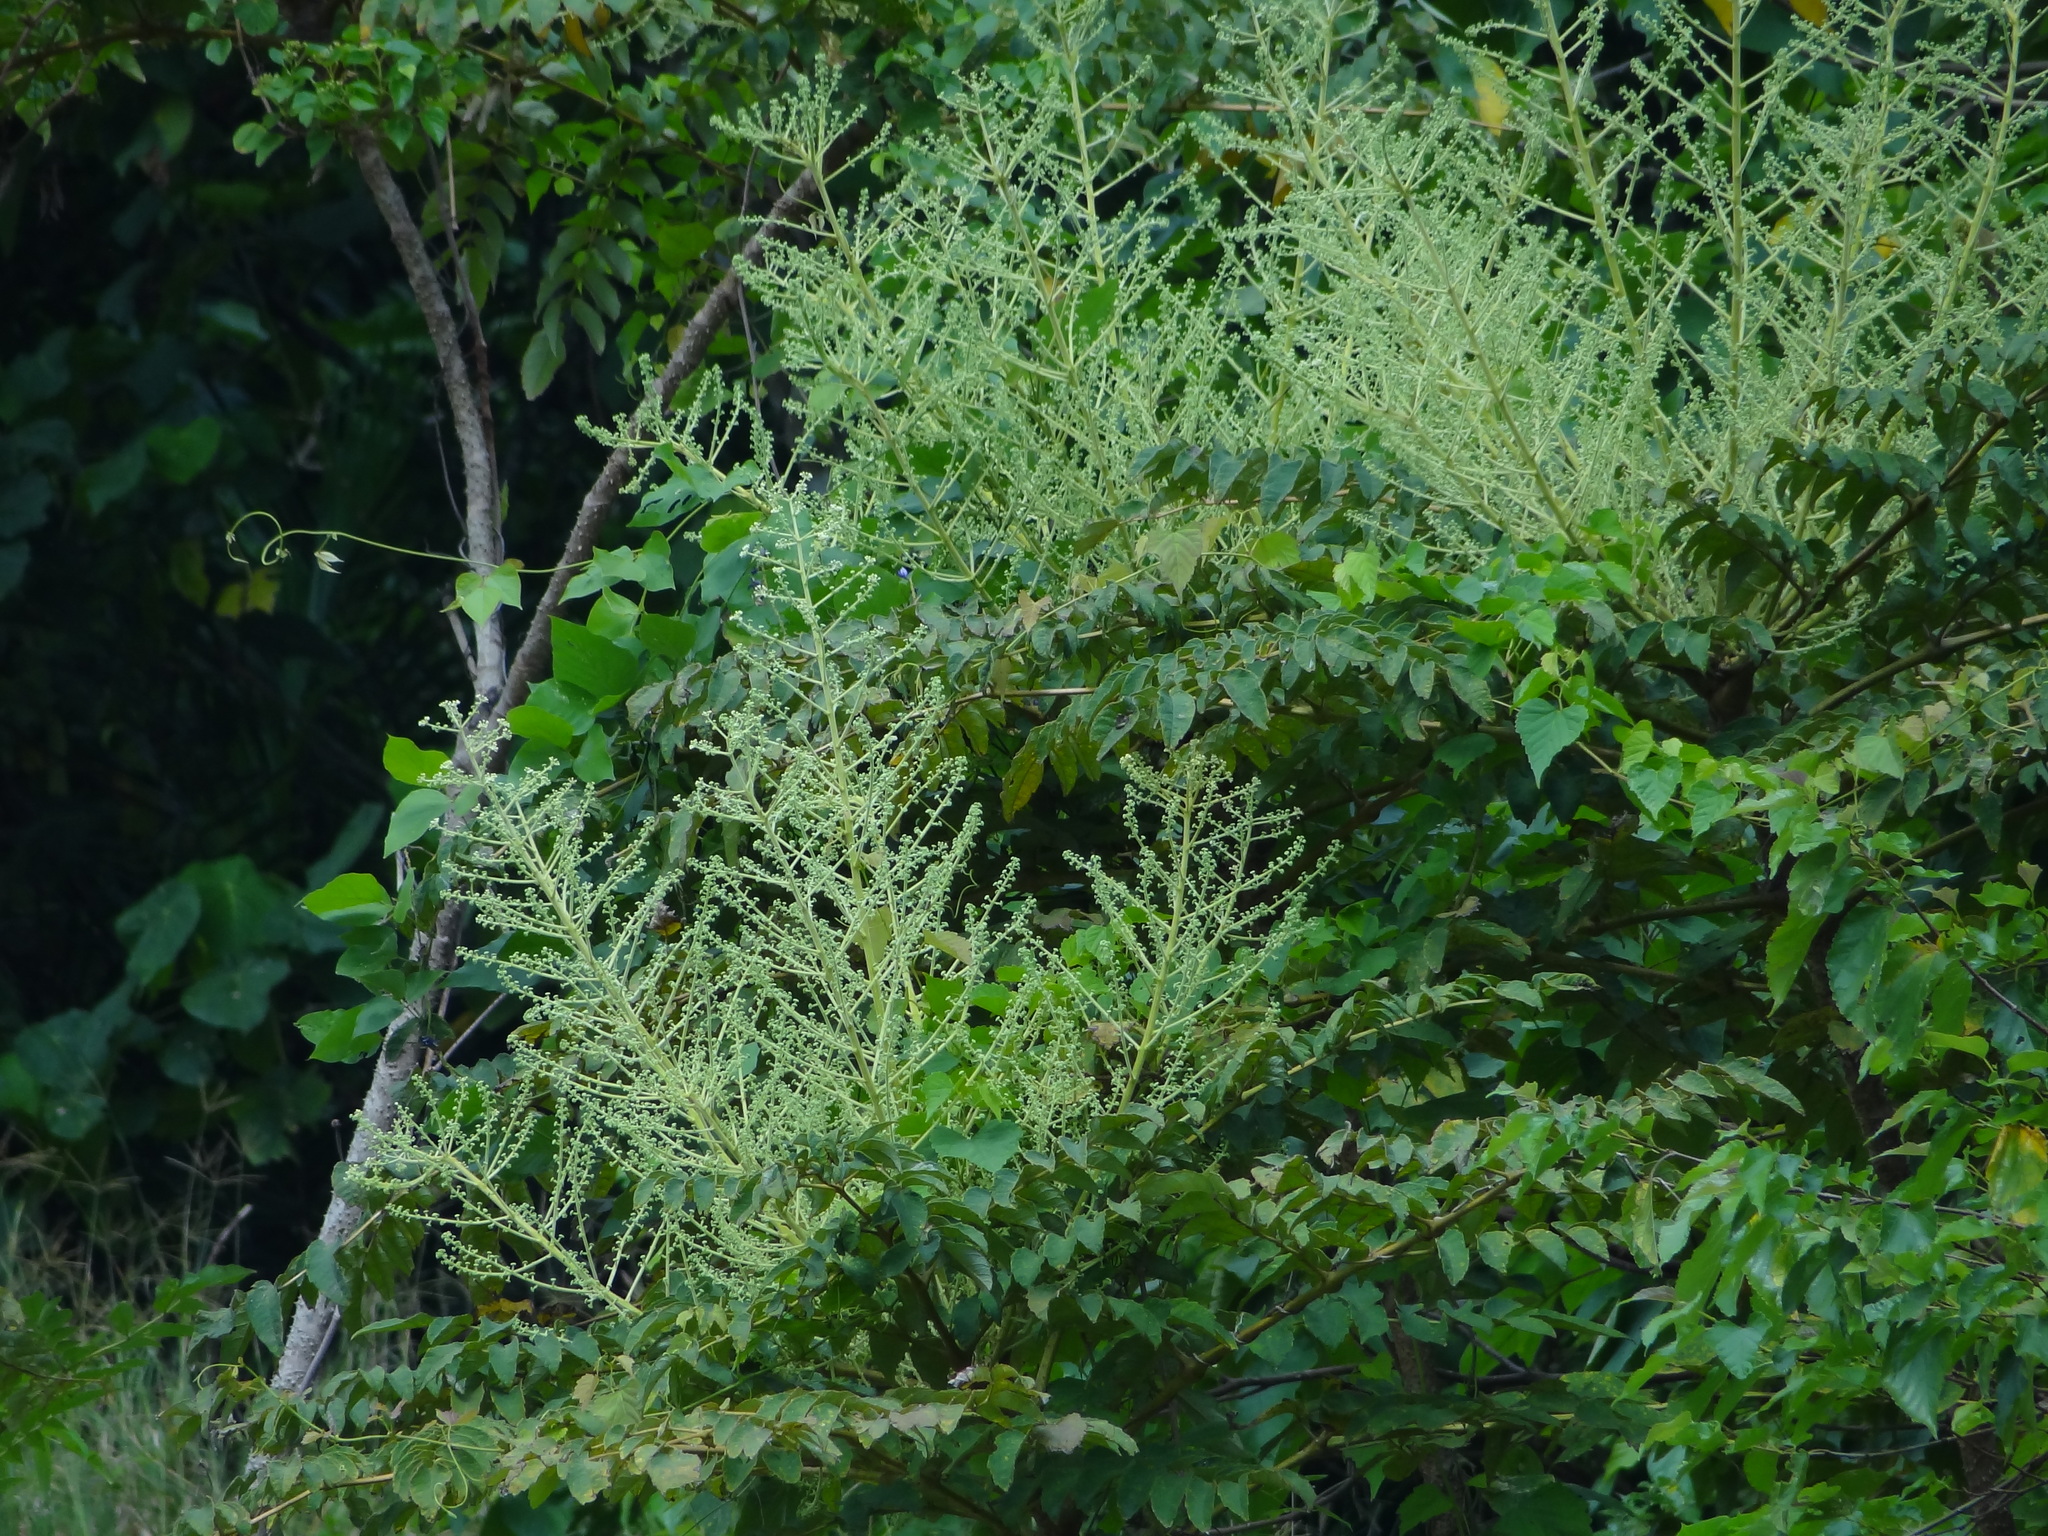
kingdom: Plantae
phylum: Tracheophyta
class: Magnoliopsida
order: Apiales
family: Araliaceae
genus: Aralia
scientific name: Aralia decaisneana
